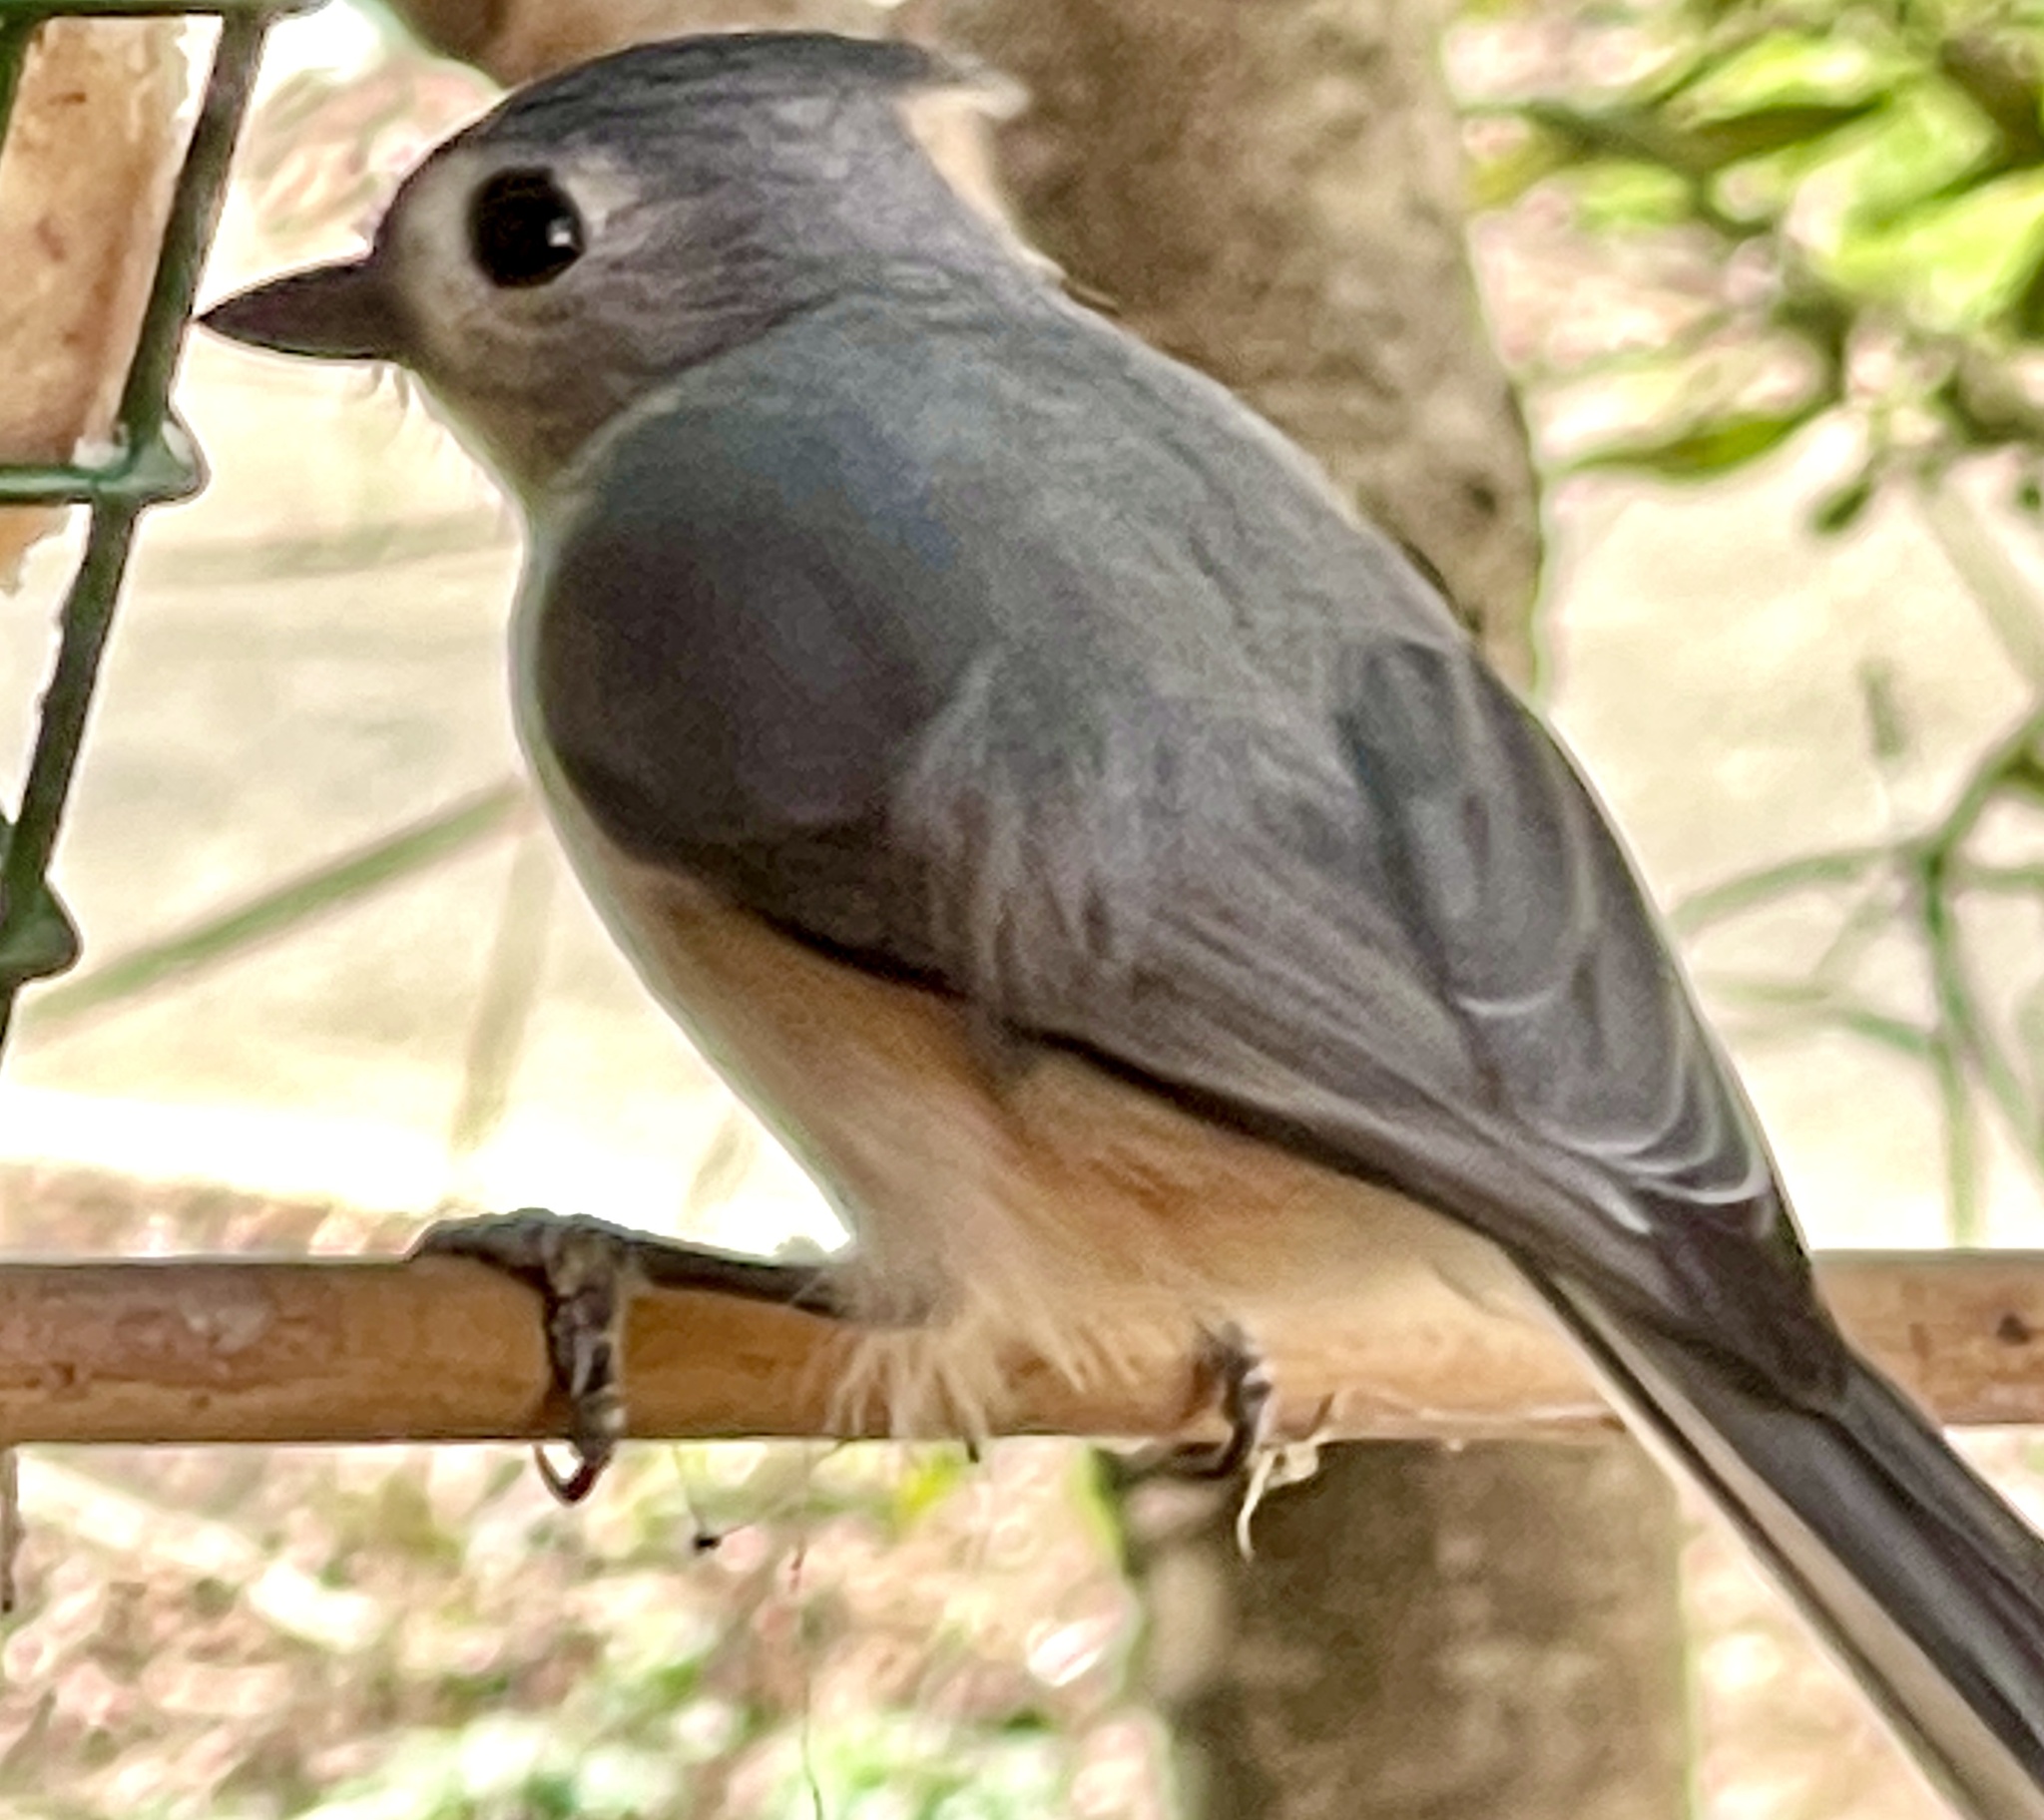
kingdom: Animalia
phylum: Chordata
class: Aves
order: Passeriformes
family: Paridae
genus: Baeolophus
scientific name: Baeolophus bicolor
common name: Tufted titmouse
